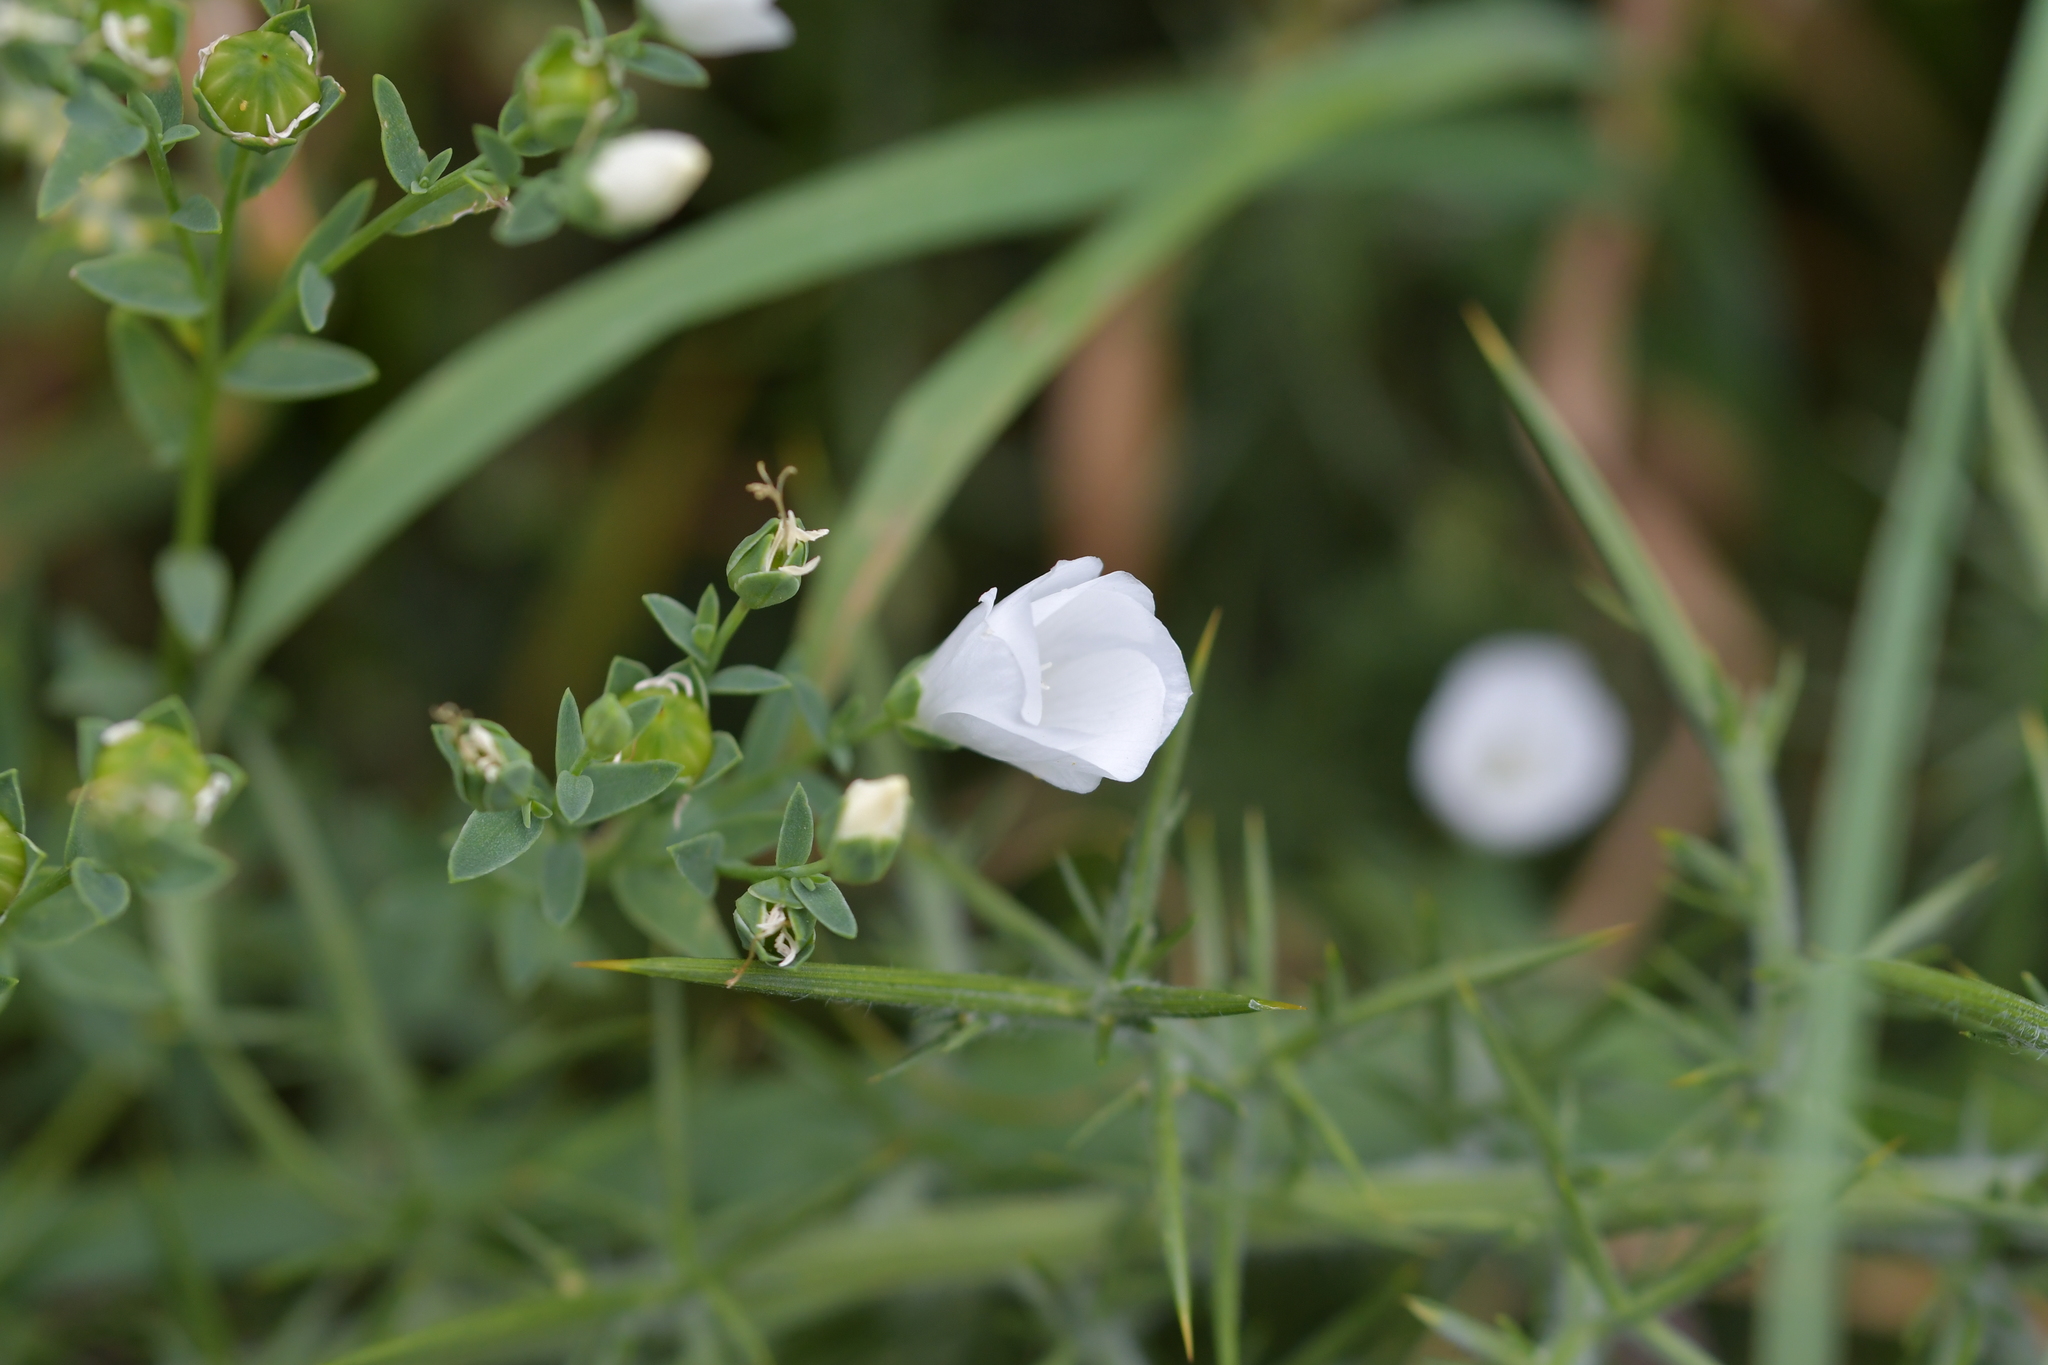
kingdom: Plantae
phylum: Tracheophyta
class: Magnoliopsida
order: Malpighiales
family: Linaceae
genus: Linum
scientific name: Linum monogynum
